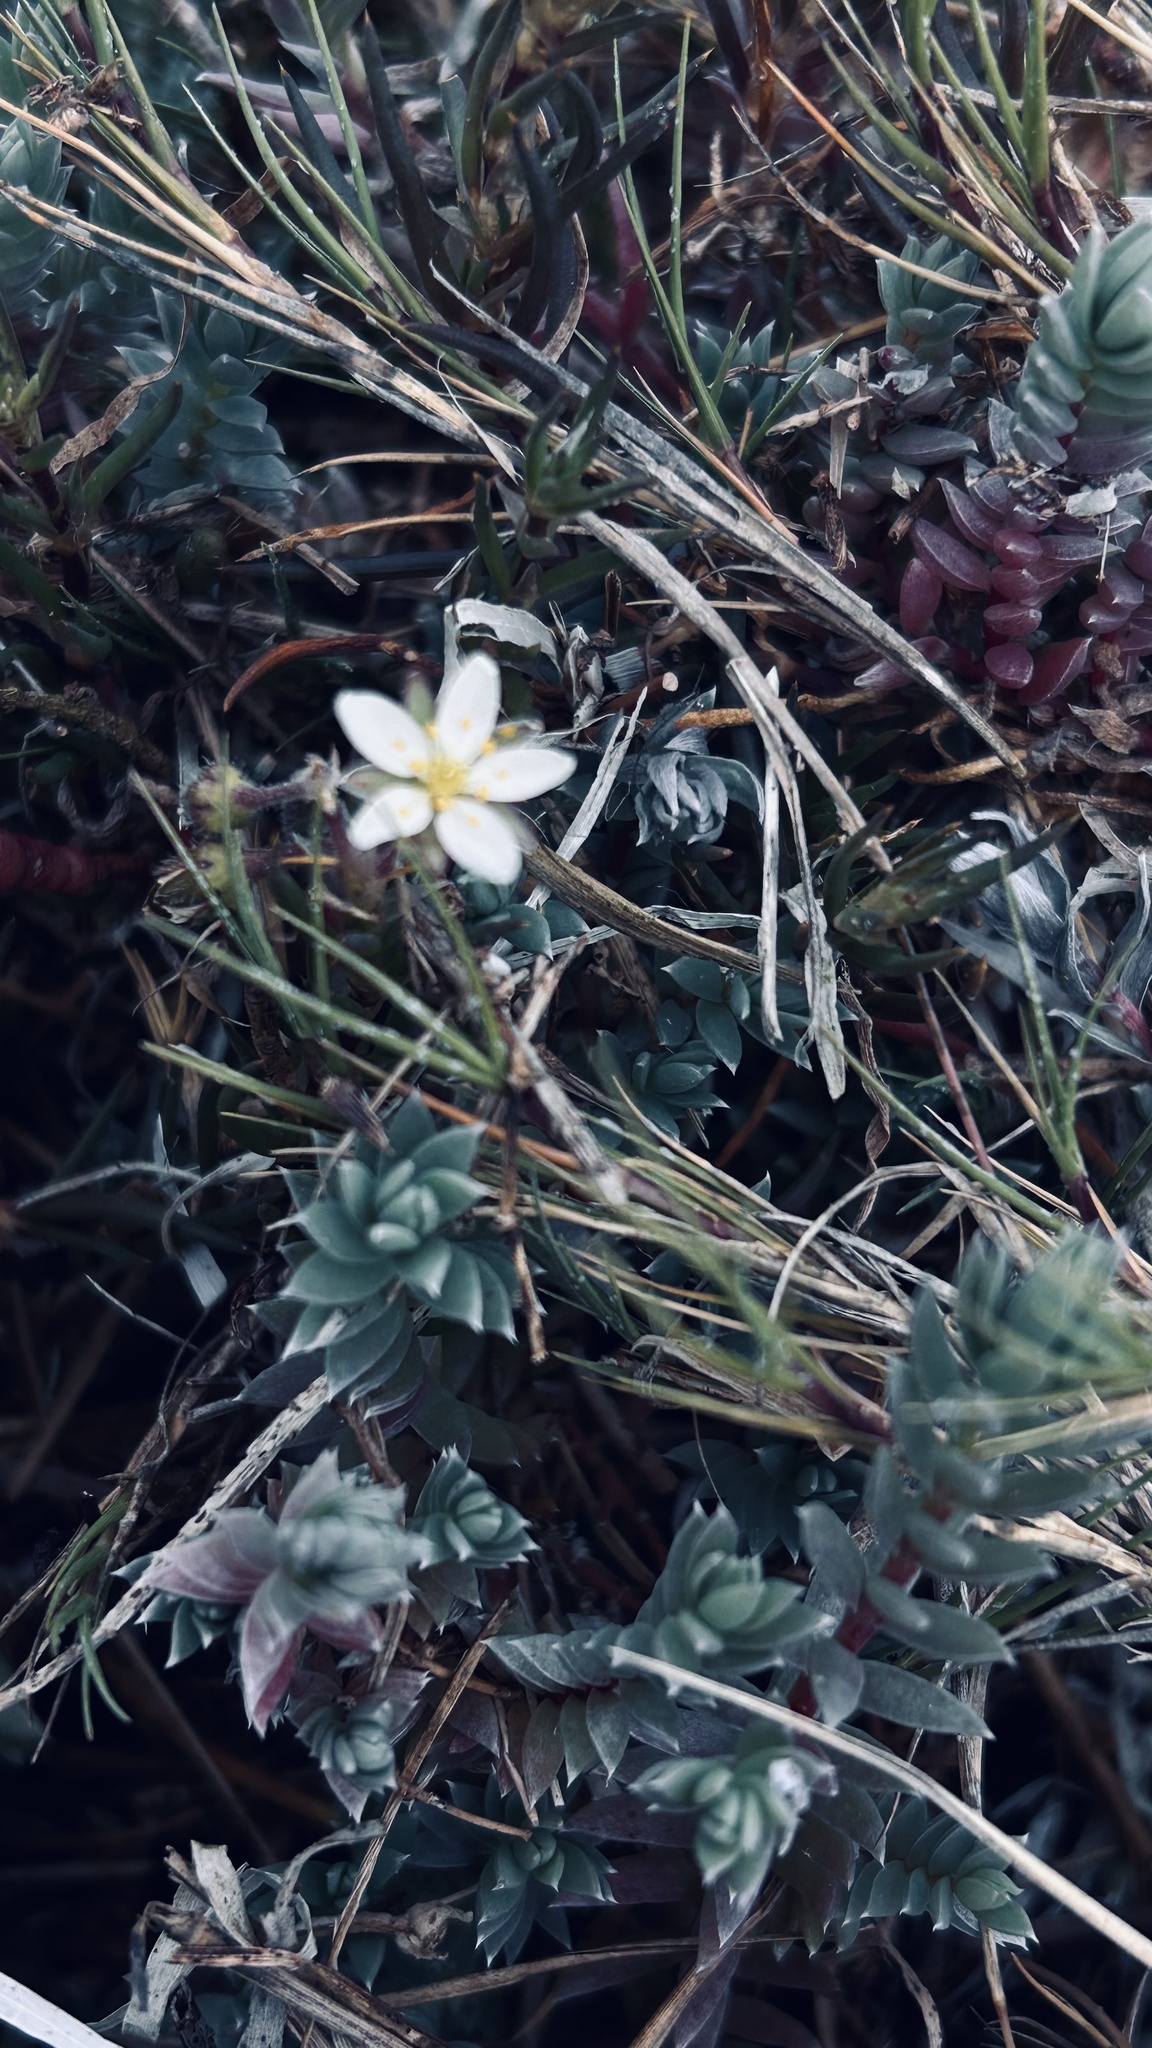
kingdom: Plantae
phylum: Tracheophyta
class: Magnoliopsida
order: Caryophyllales
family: Caryophyllaceae
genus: Spergularia
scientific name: Spergularia media
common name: Greater sea-spurrey
